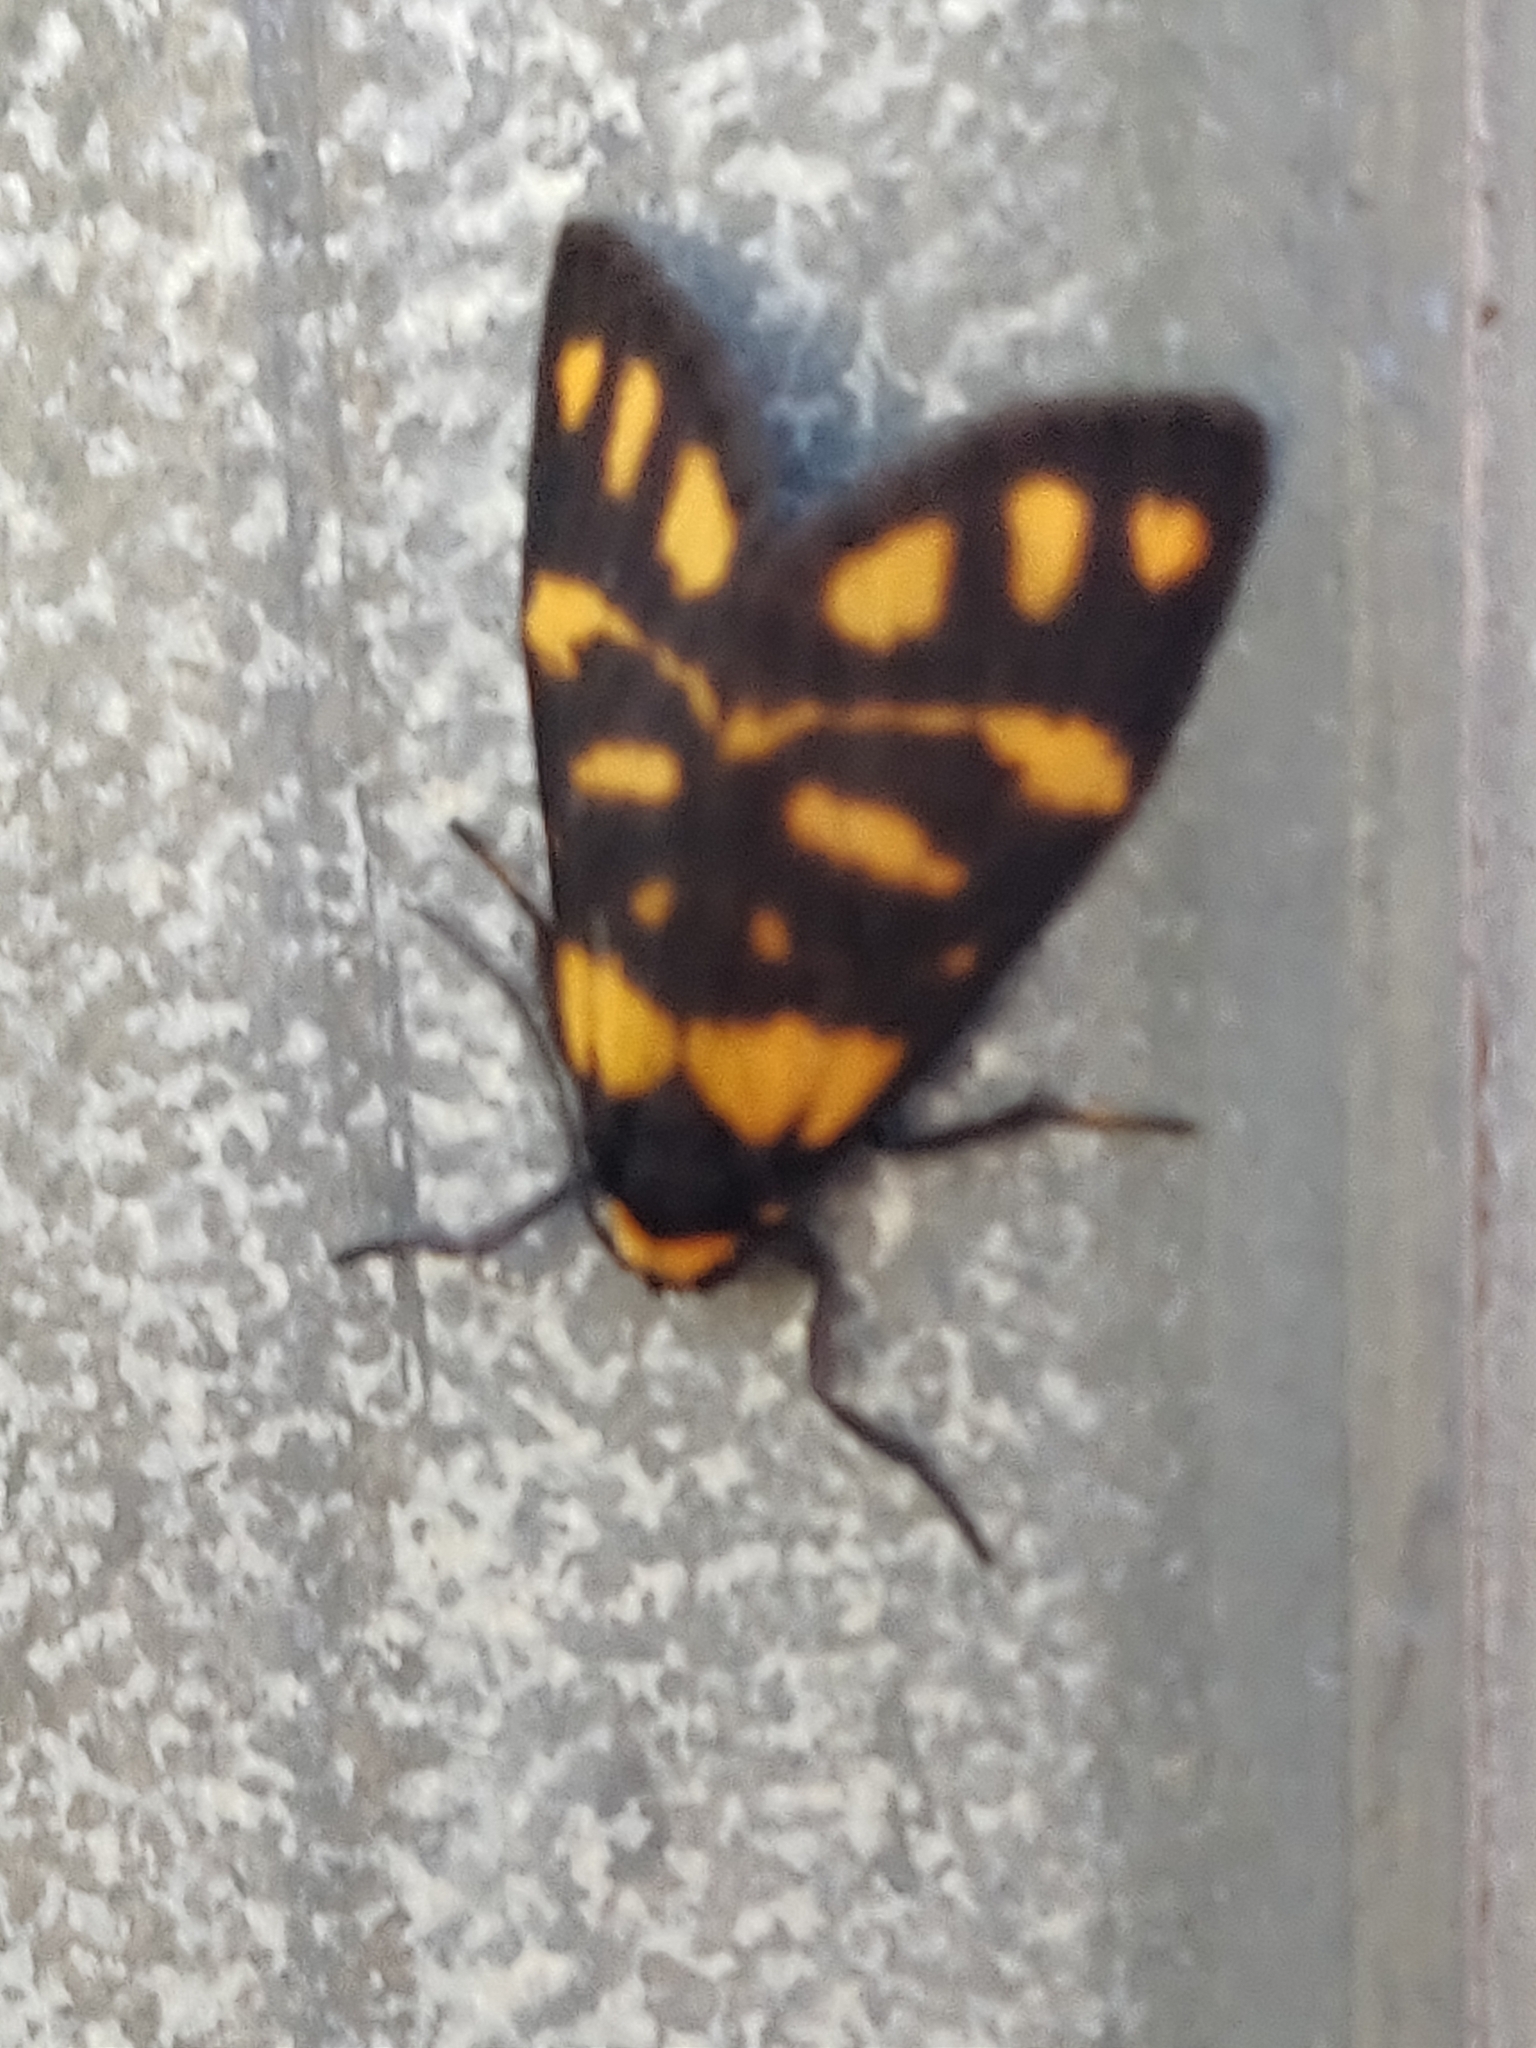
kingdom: Animalia
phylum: Arthropoda
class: Insecta
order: Lepidoptera
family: Erebidae
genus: Asura
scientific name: Asura lydia
